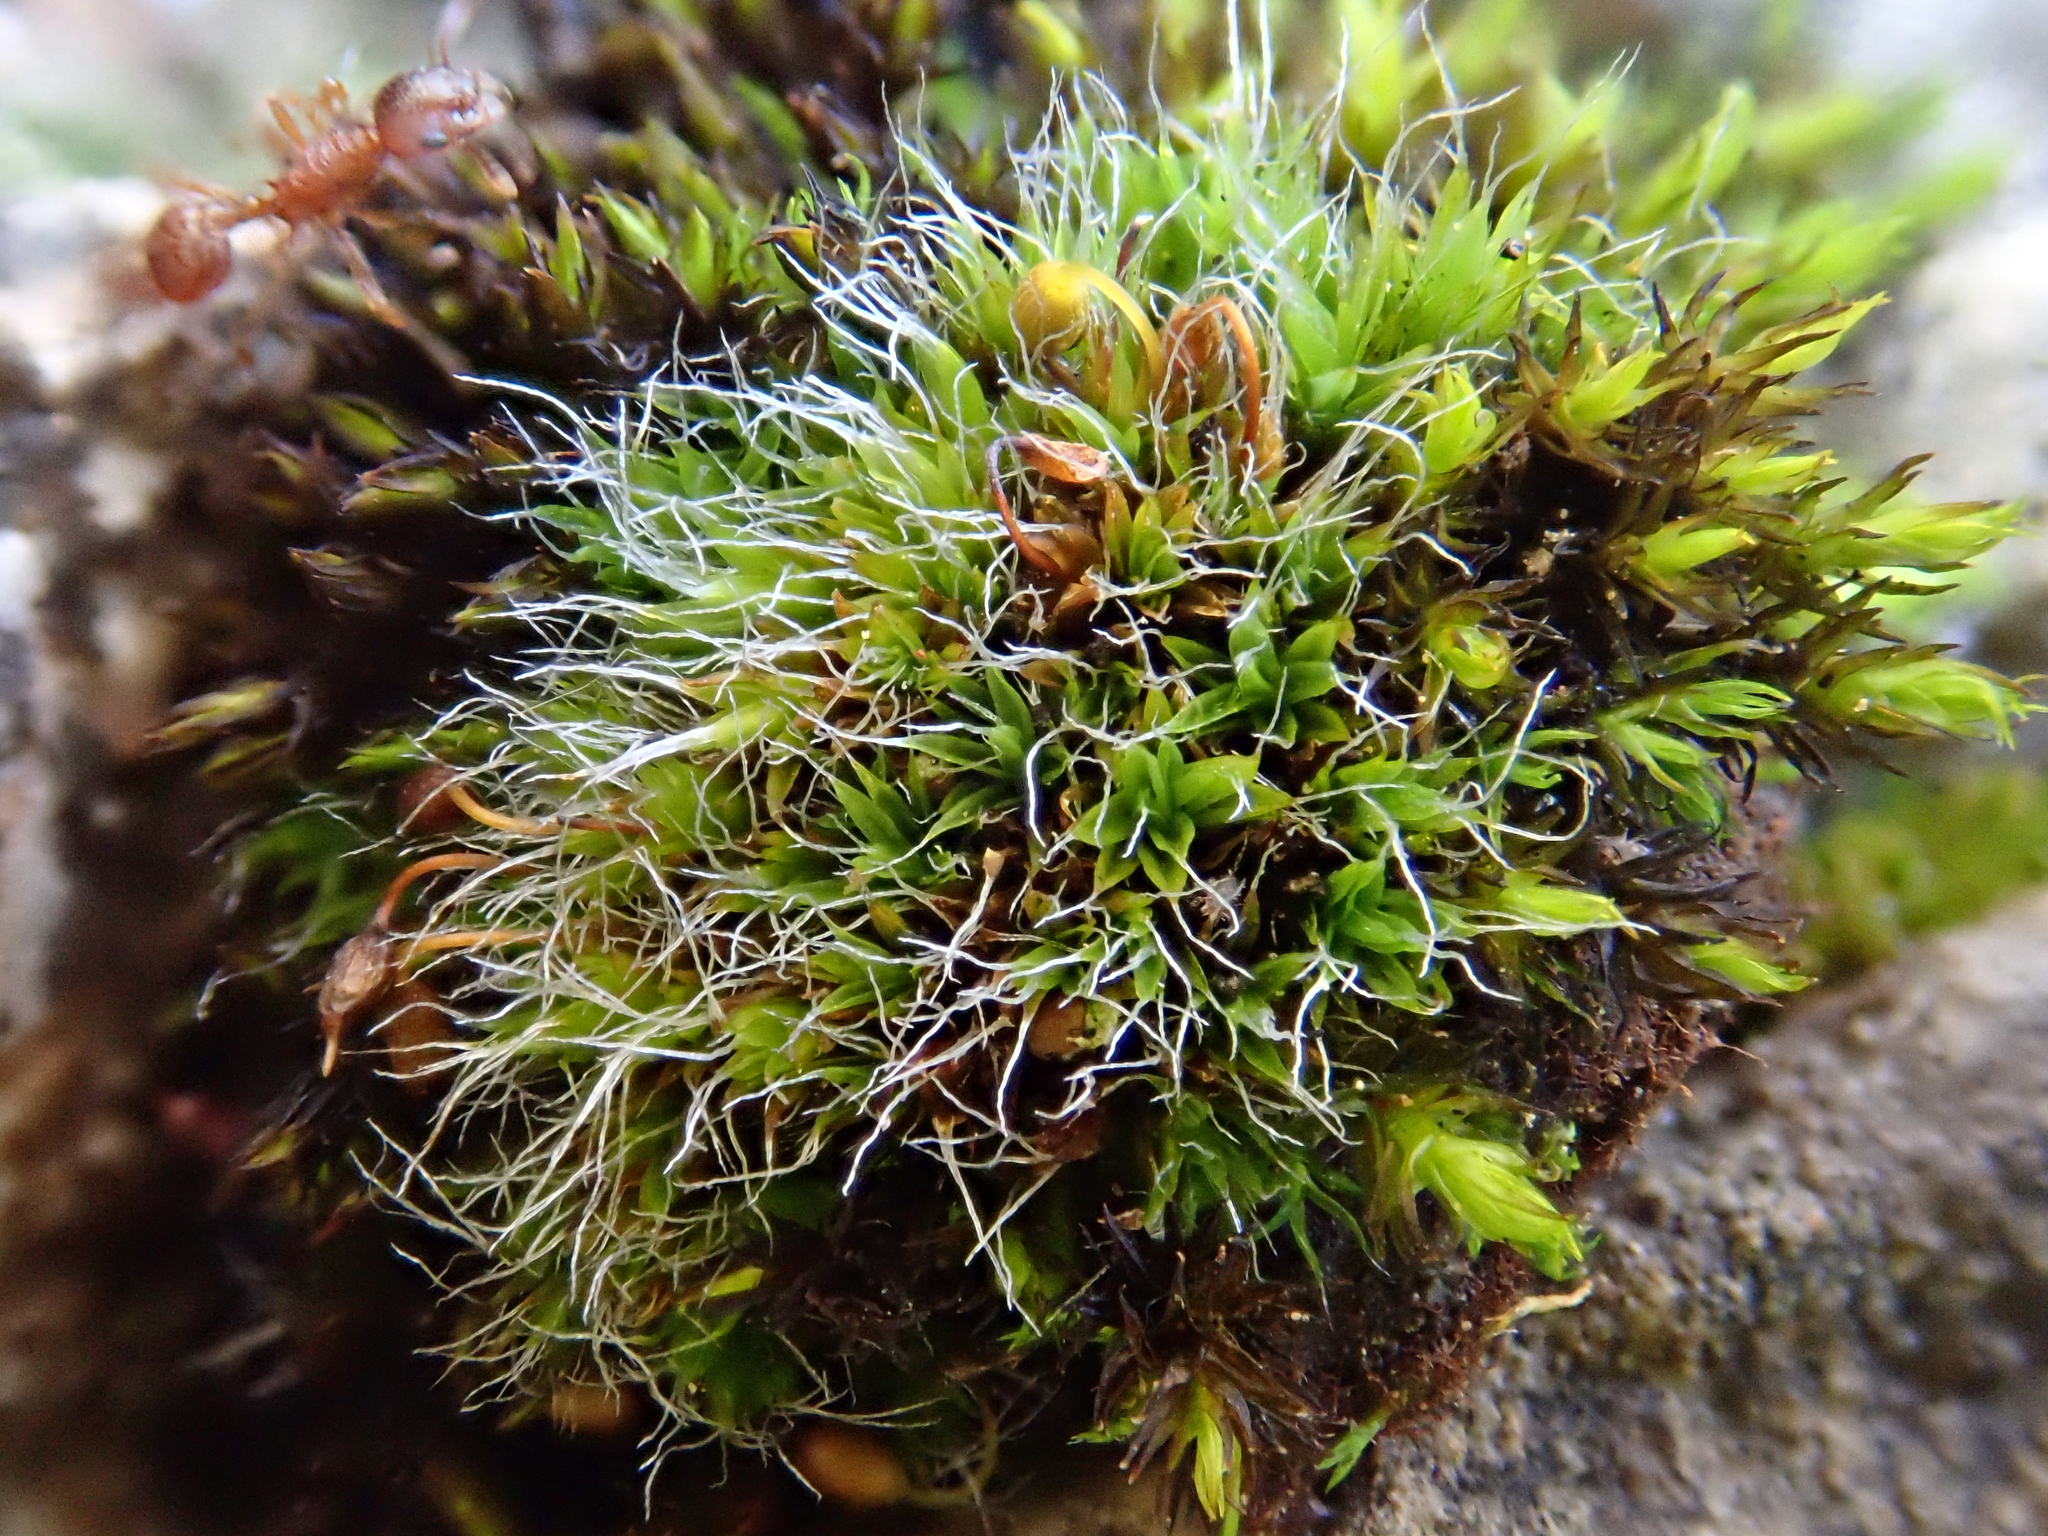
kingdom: Plantae
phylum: Bryophyta
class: Bryopsida
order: Grimmiales
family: Grimmiaceae
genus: Grimmia
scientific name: Grimmia pulvinata
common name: Grey-cushioned grimmia
